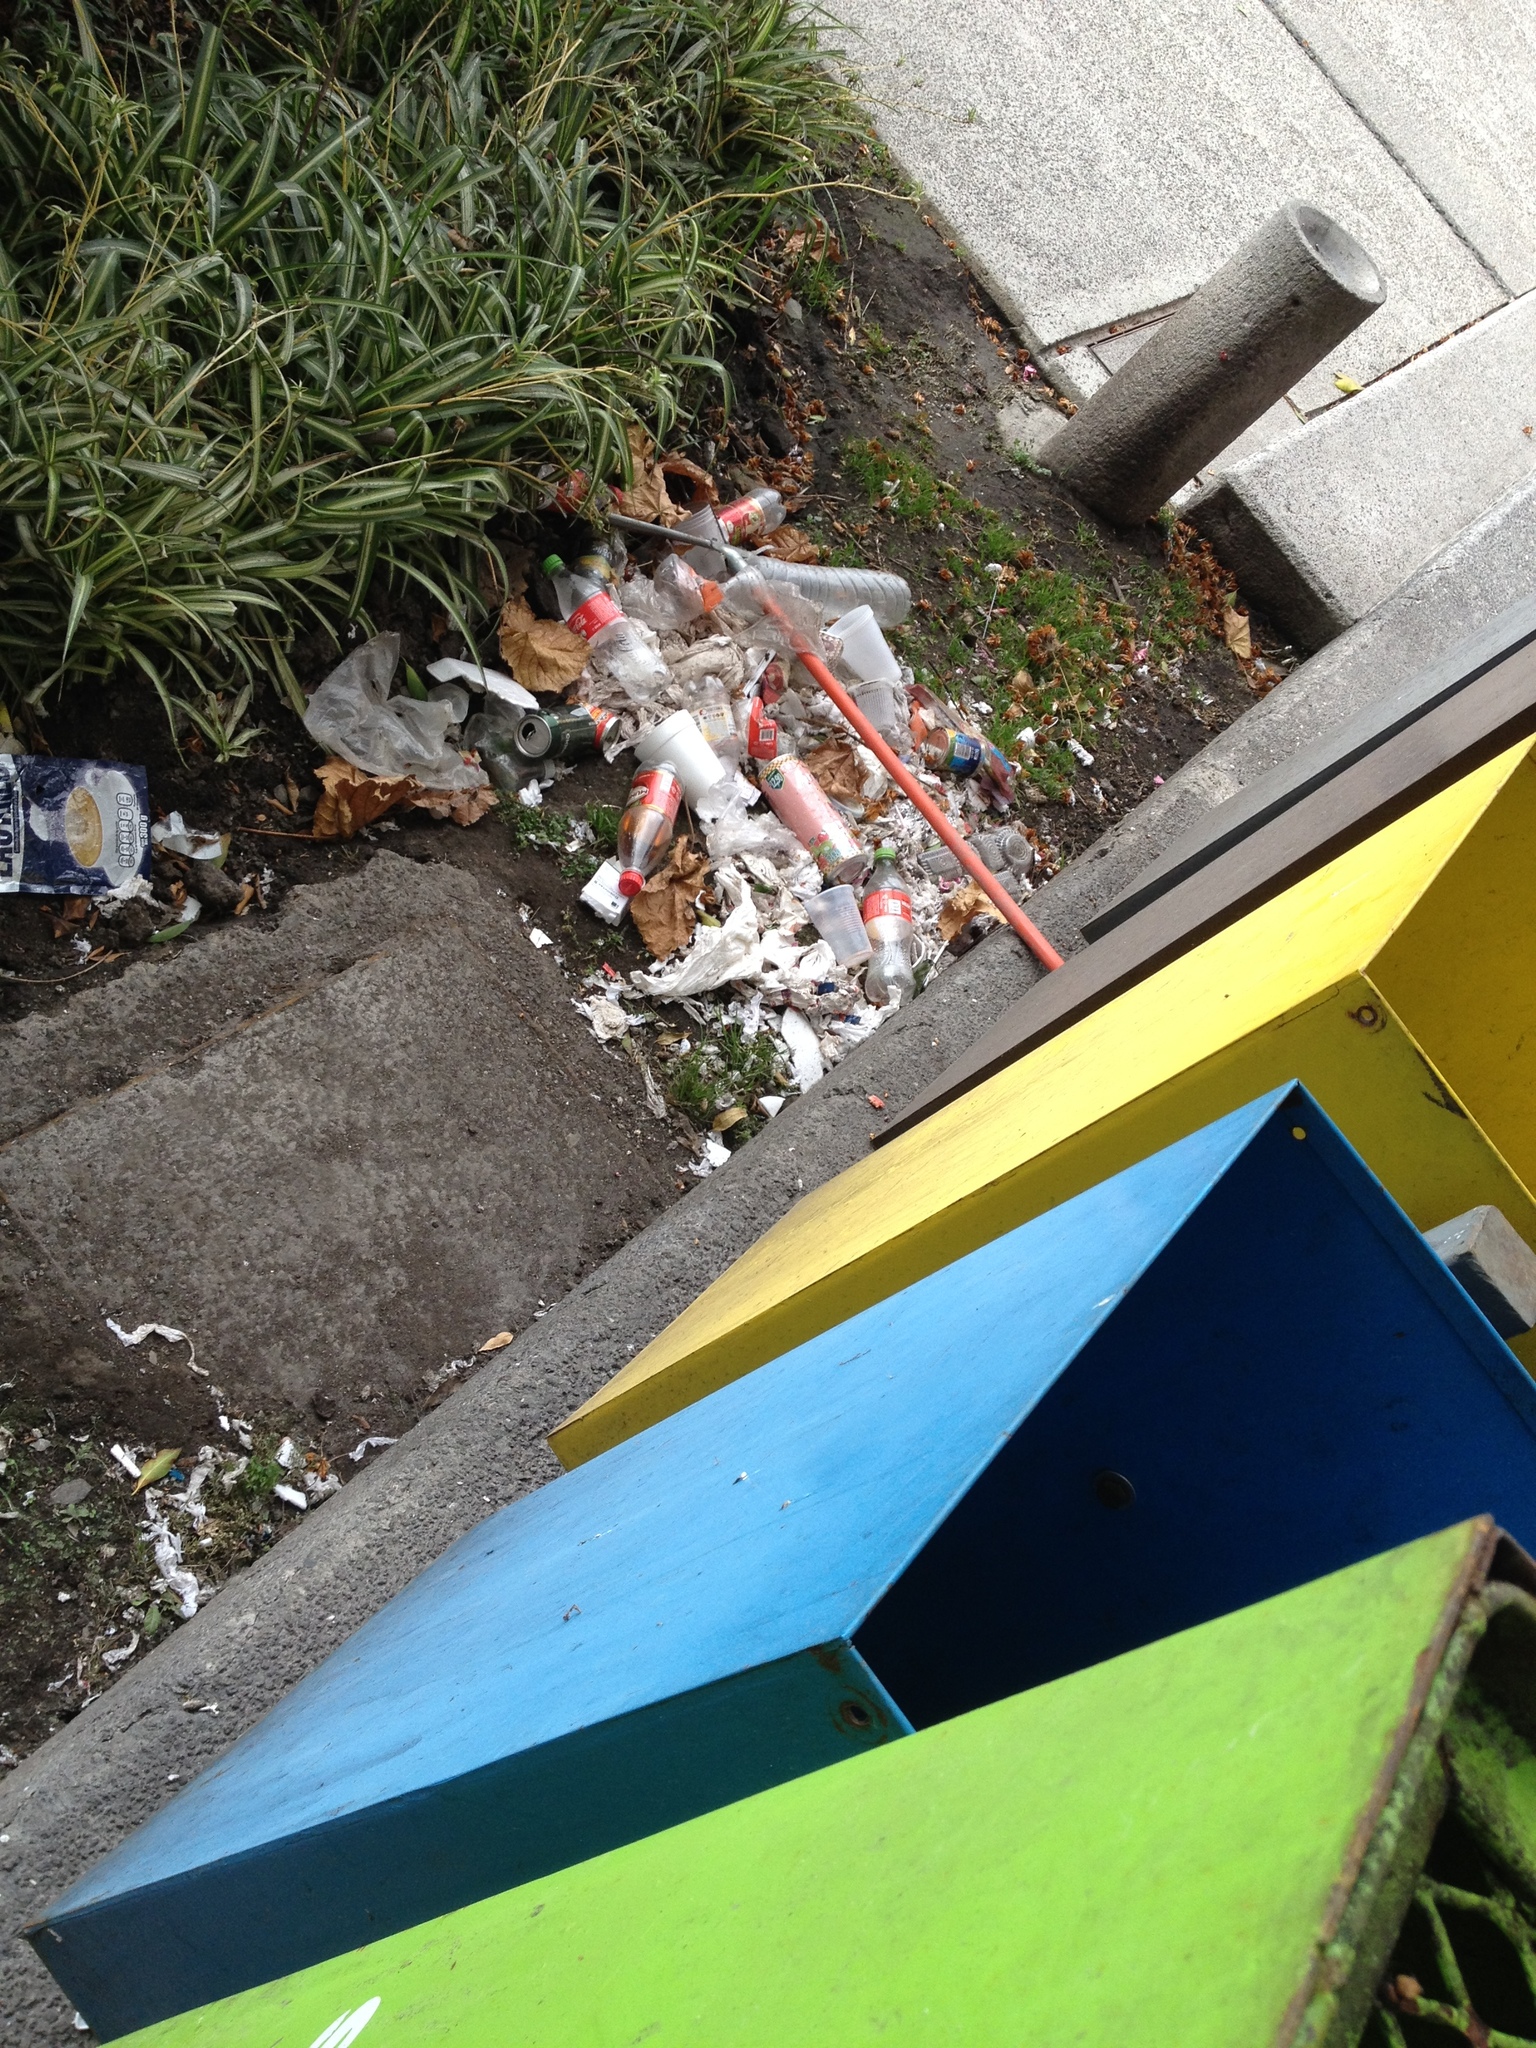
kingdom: Animalia
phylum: Chordata
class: Mammalia
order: Didelphimorphia
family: Didelphidae
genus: Didelphis
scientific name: Didelphis virginiana
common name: Virginia opossum
